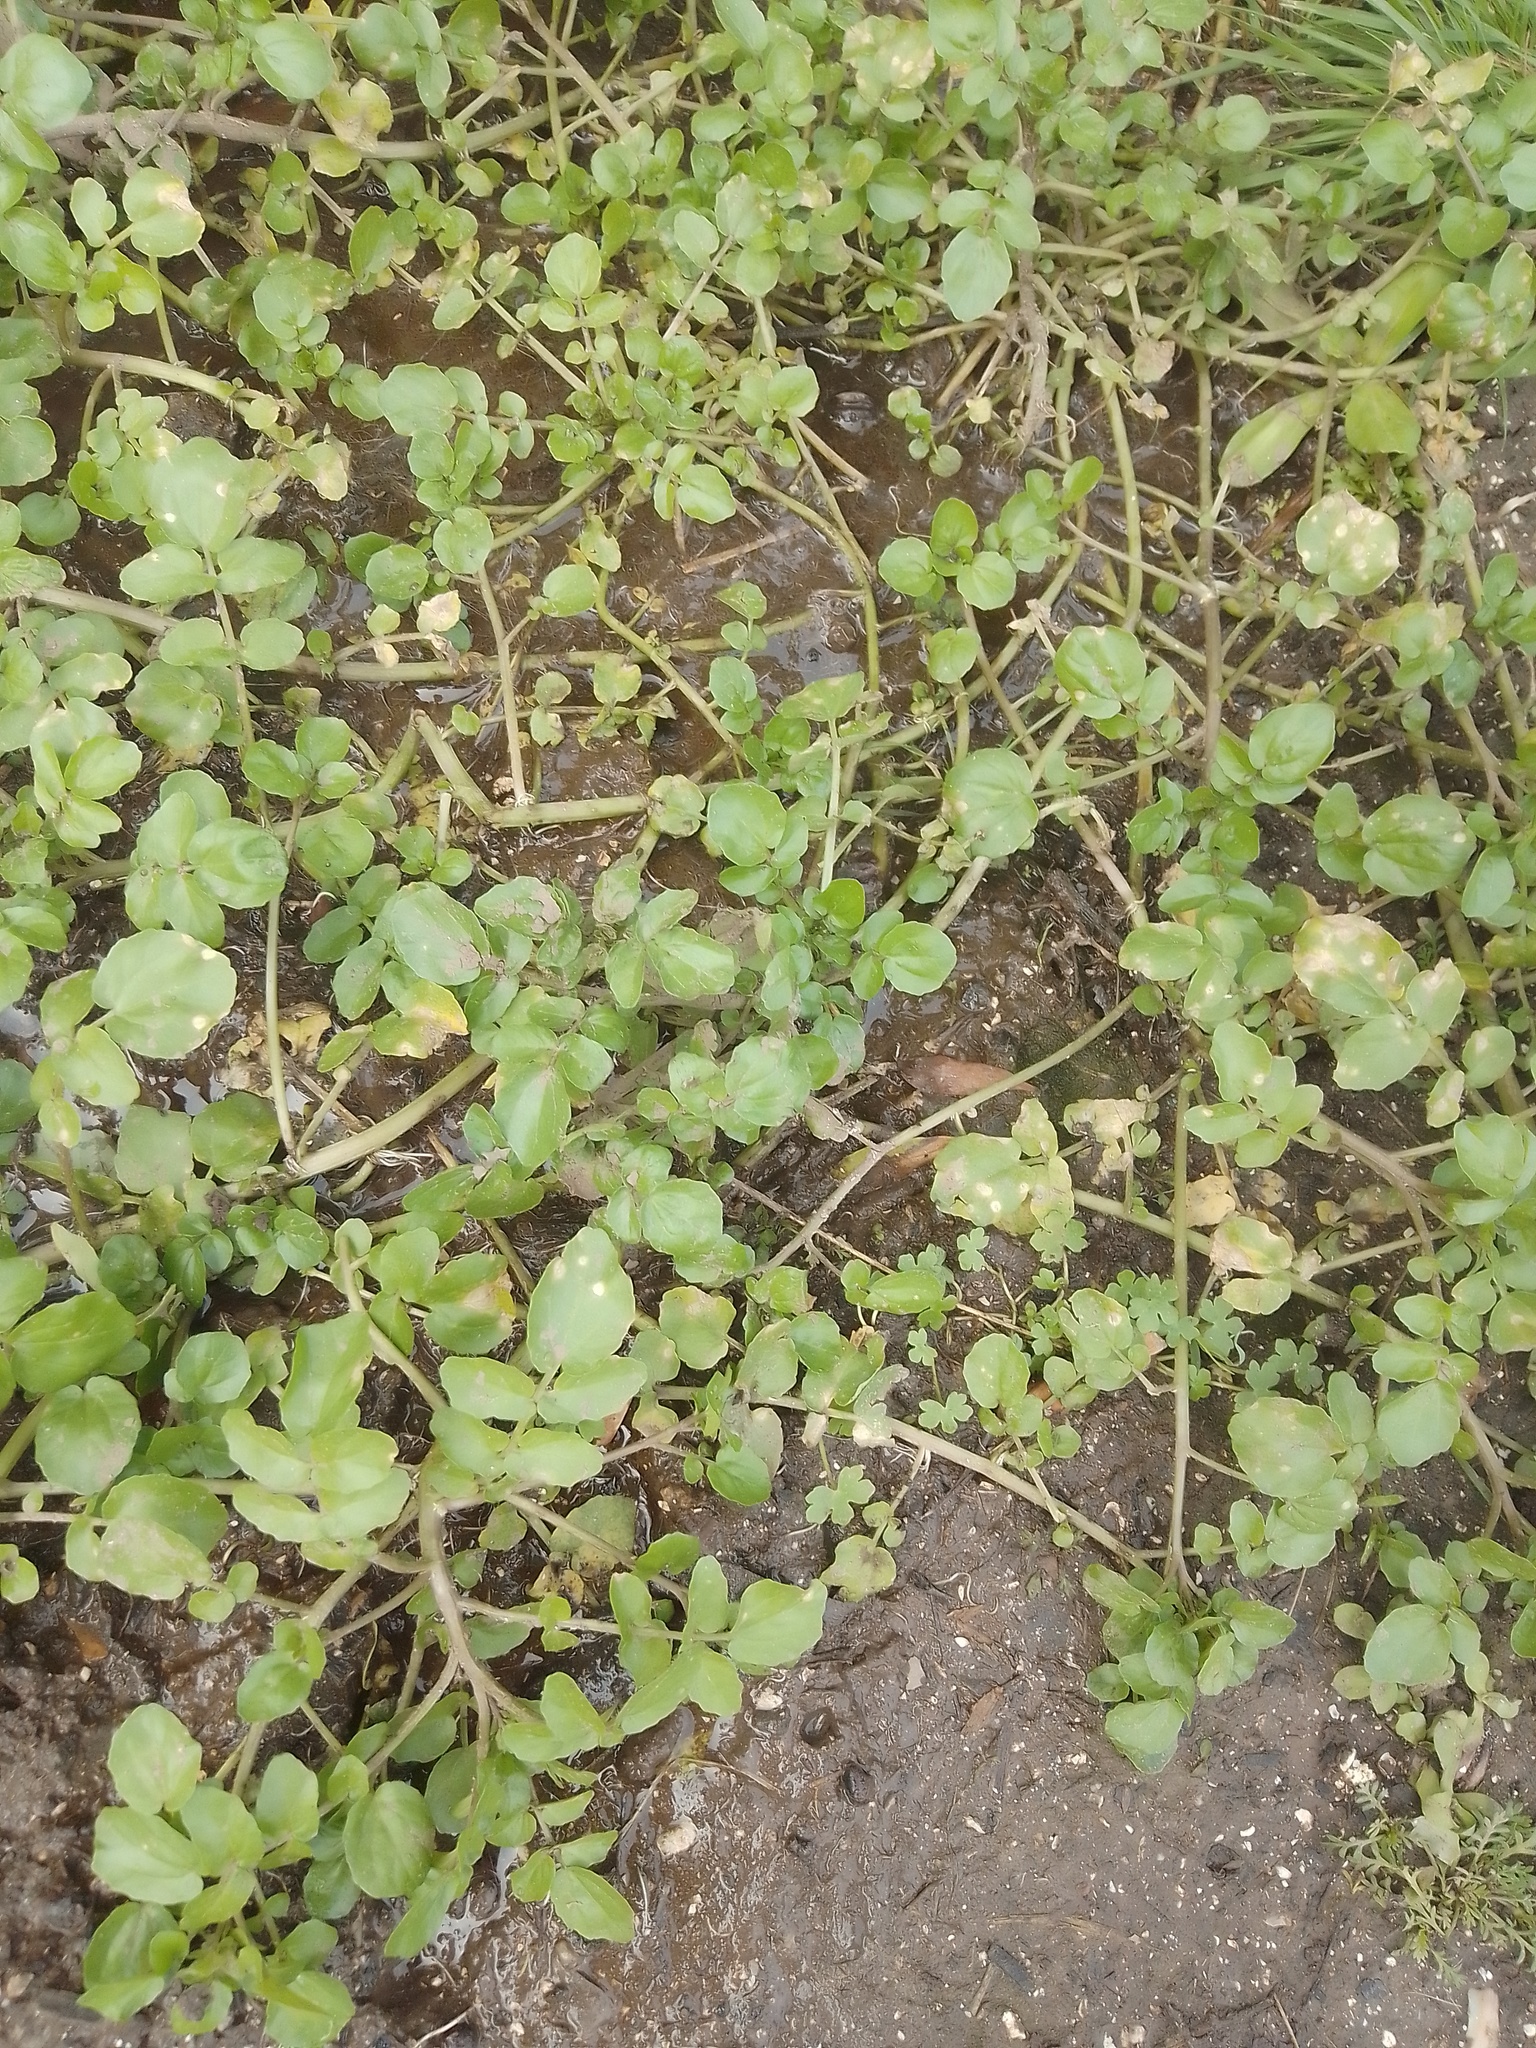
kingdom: Plantae
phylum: Tracheophyta
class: Magnoliopsida
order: Brassicales
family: Brassicaceae
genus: Nasturtium
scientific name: Nasturtium officinale
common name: Watercress
